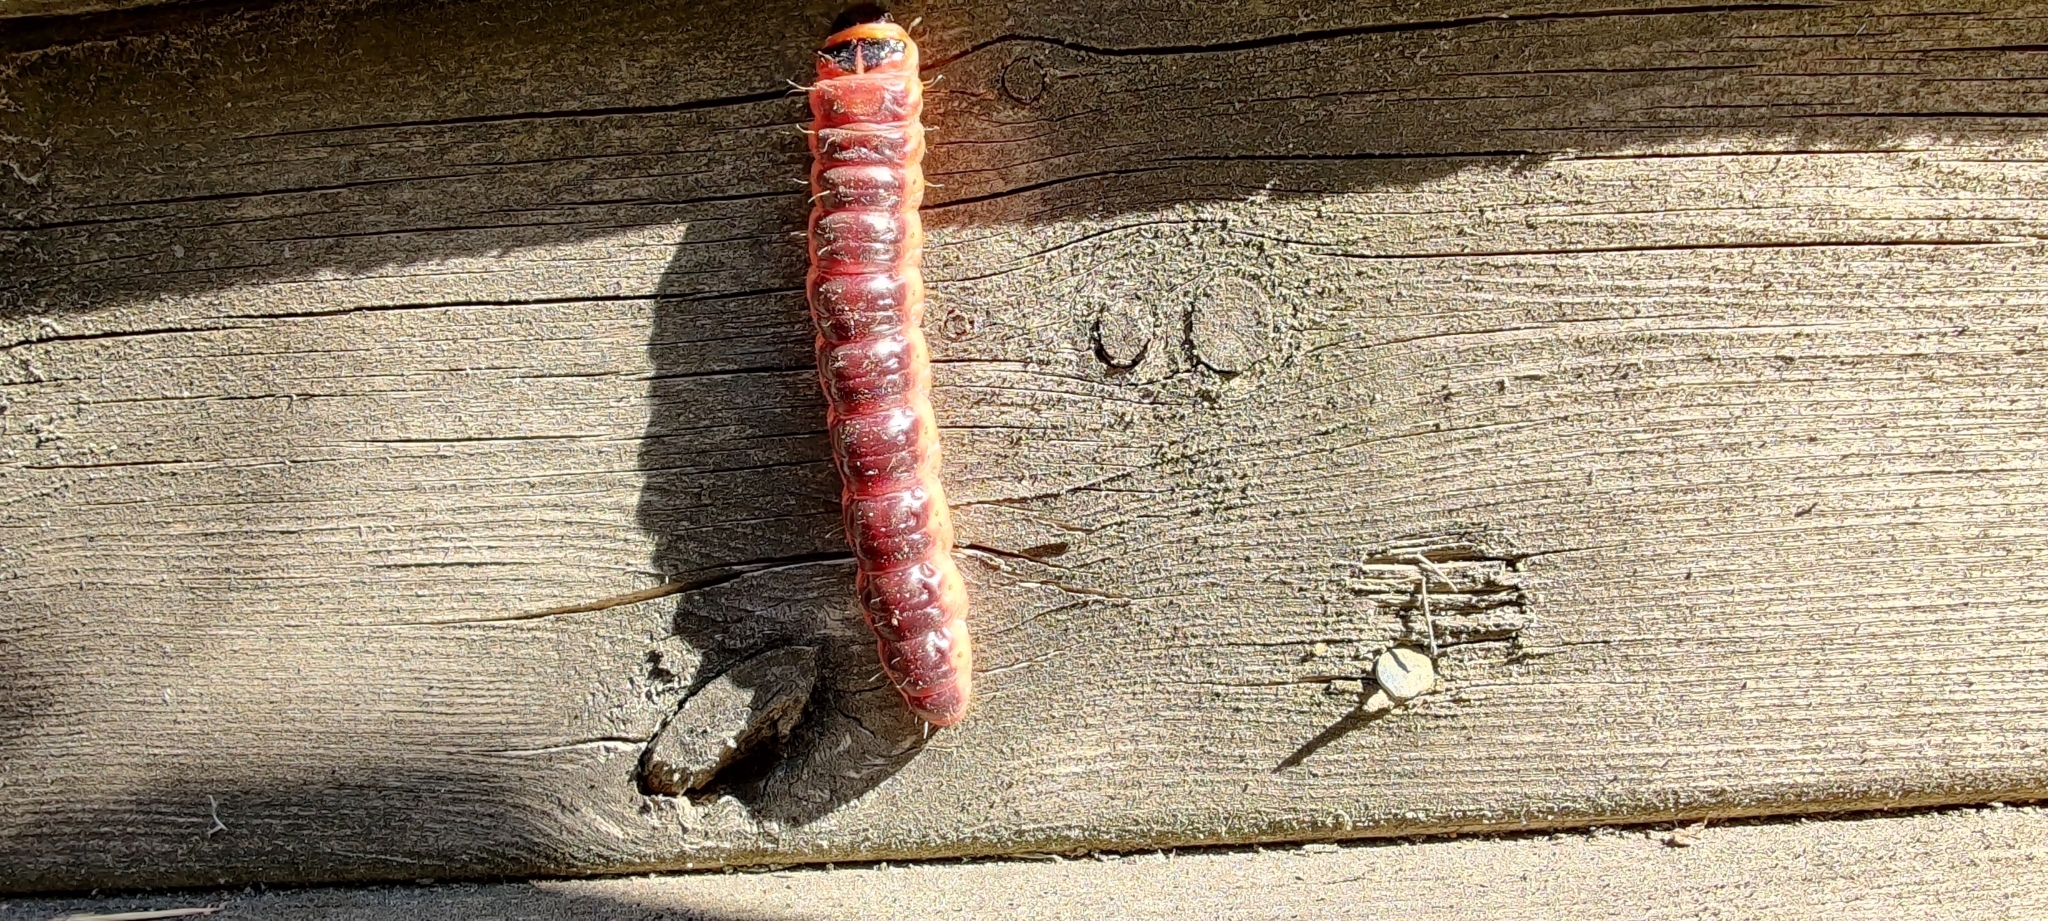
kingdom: Animalia
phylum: Arthropoda
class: Insecta
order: Lepidoptera
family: Cossidae
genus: Cossus
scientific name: Cossus cossus
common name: Goat moth
